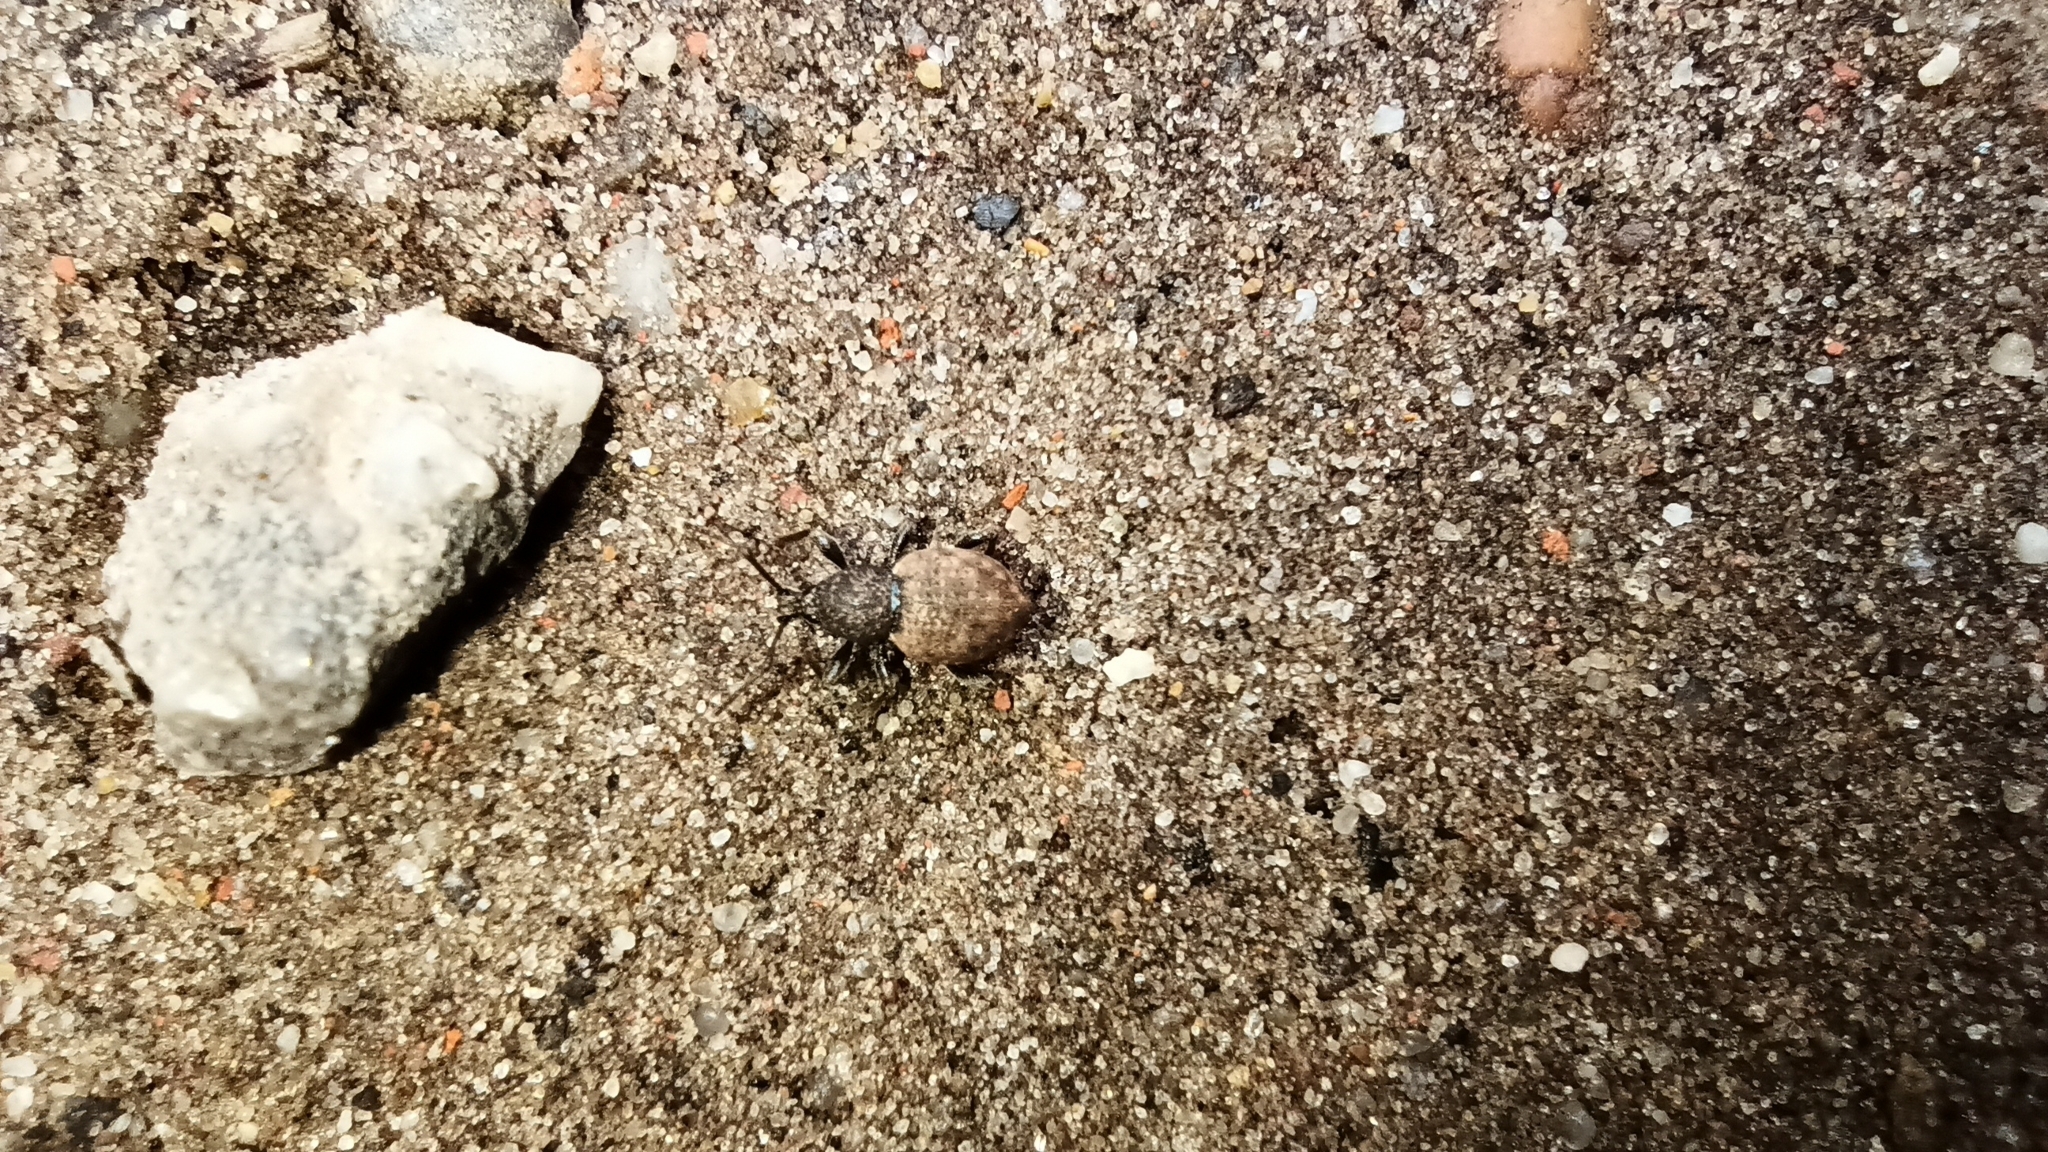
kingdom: Animalia
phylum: Arthropoda
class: Insecta
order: Coleoptera
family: Curculionidae
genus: Otiorhynchus
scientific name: Otiorhynchus raucus
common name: Weevil
